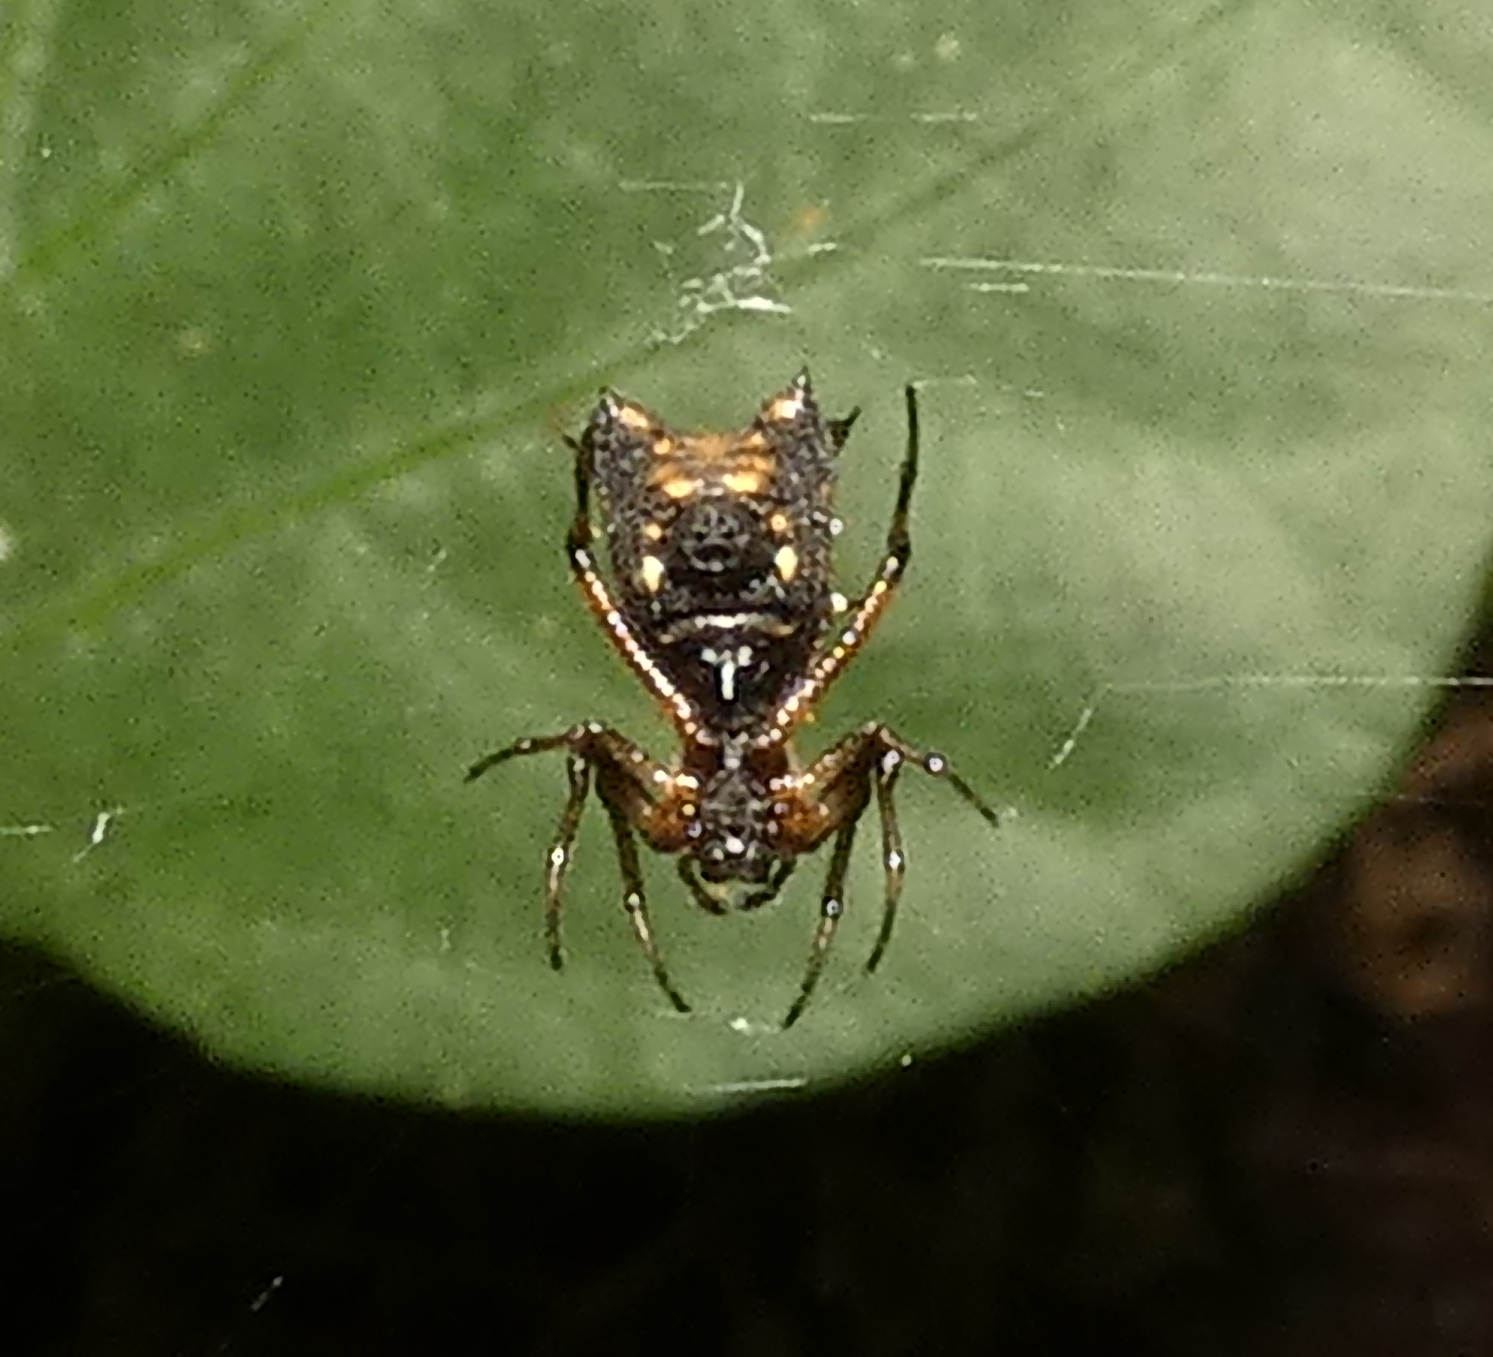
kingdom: Animalia
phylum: Arthropoda
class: Arachnida
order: Araneae
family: Araneidae
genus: Micrathena
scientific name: Micrathena picta
